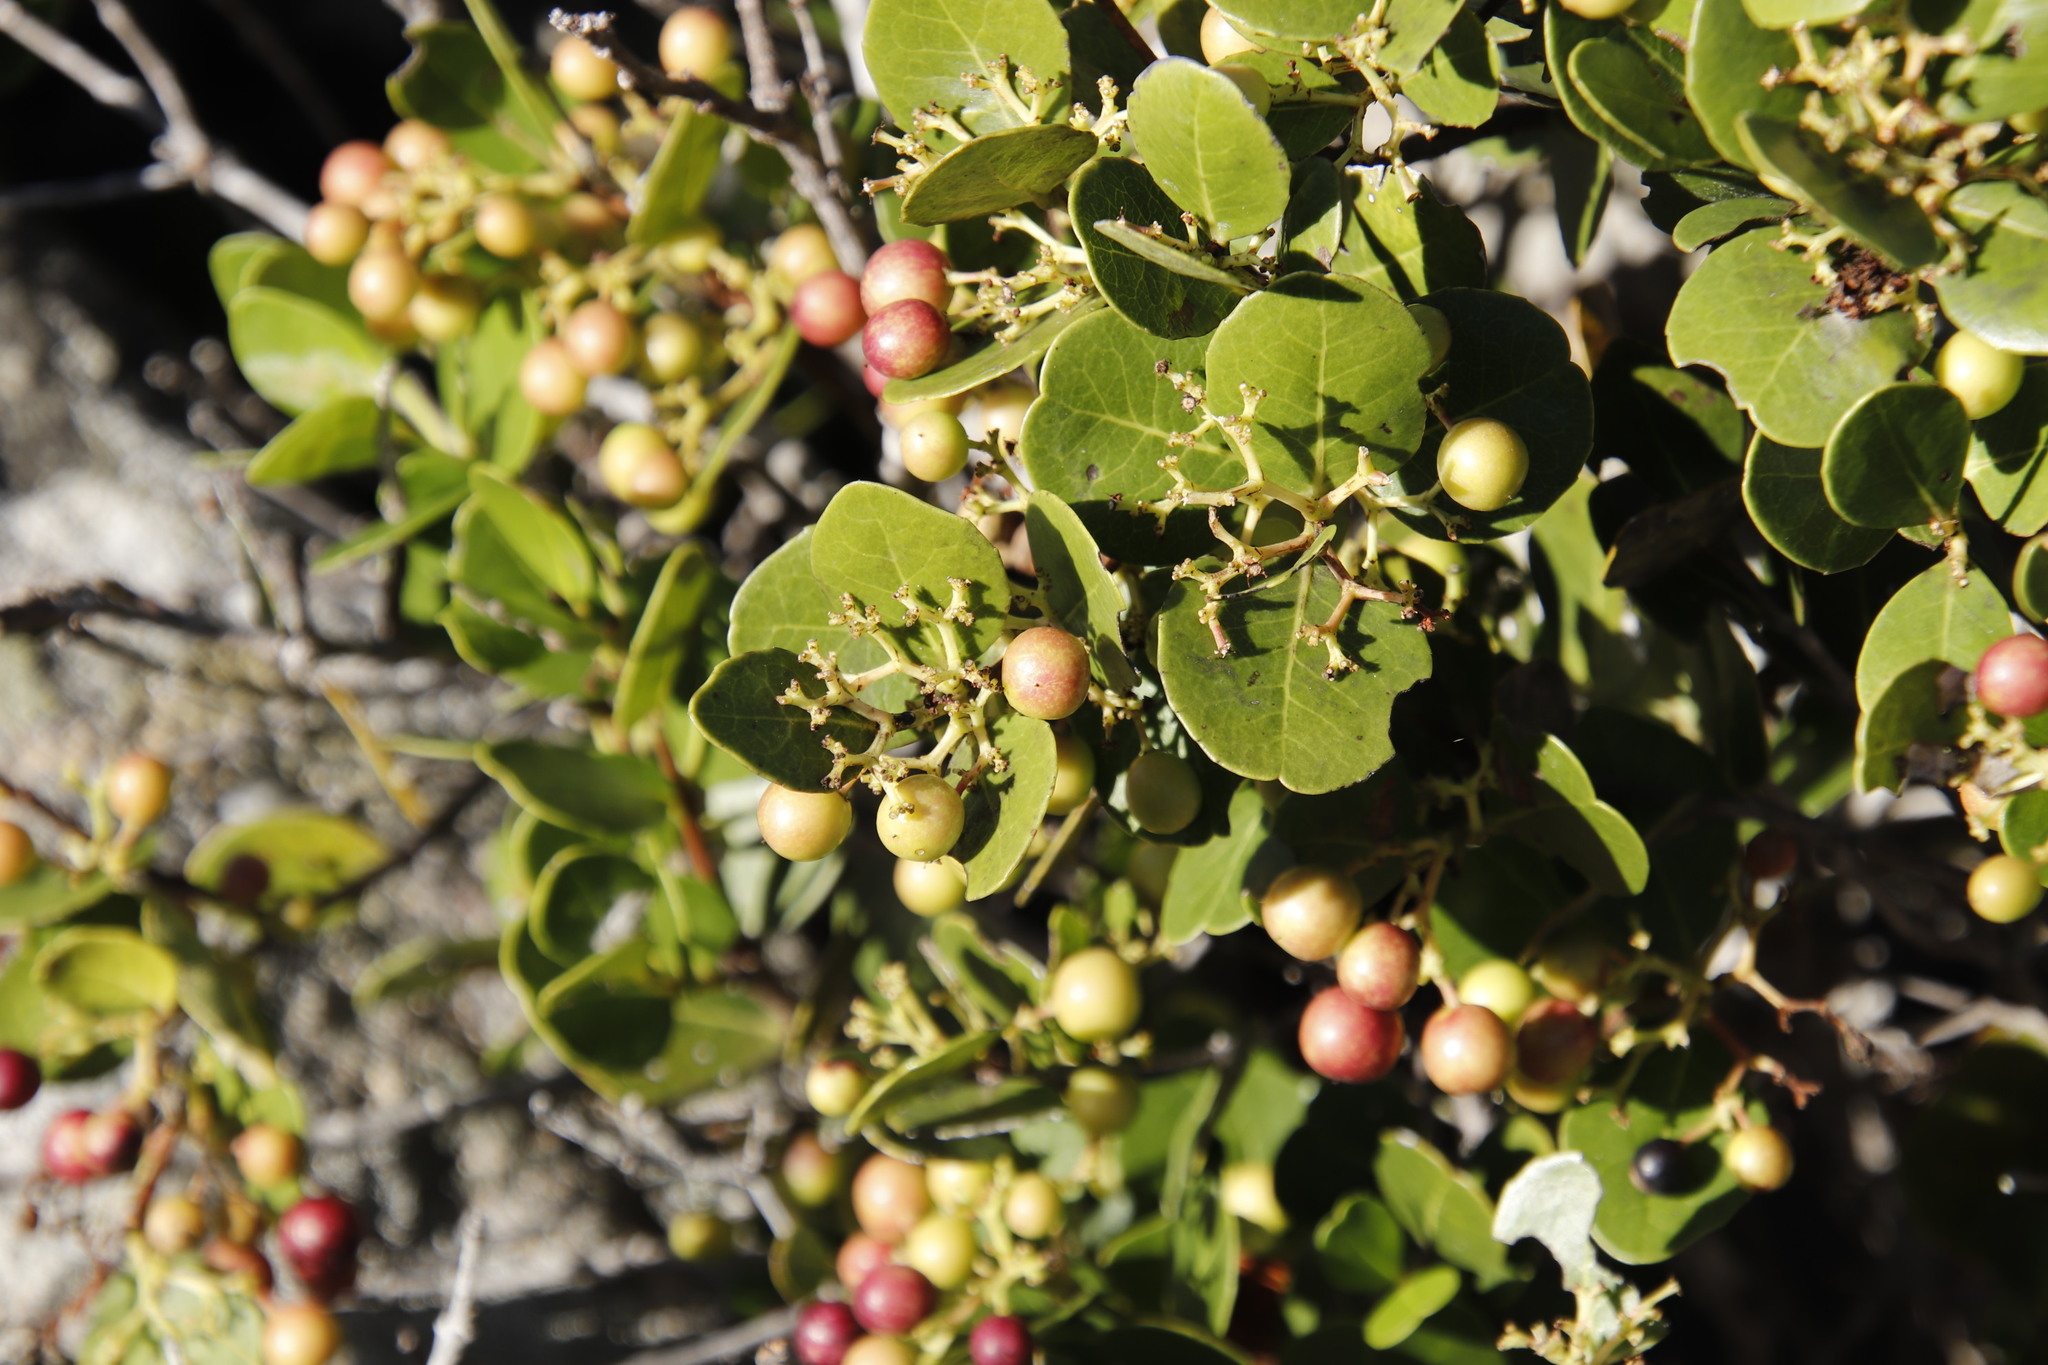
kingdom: Plantae
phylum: Tracheophyta
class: Magnoliopsida
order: Celastrales
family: Celastraceae
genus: Cassine
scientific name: Cassine peragua
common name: Cape saffron
